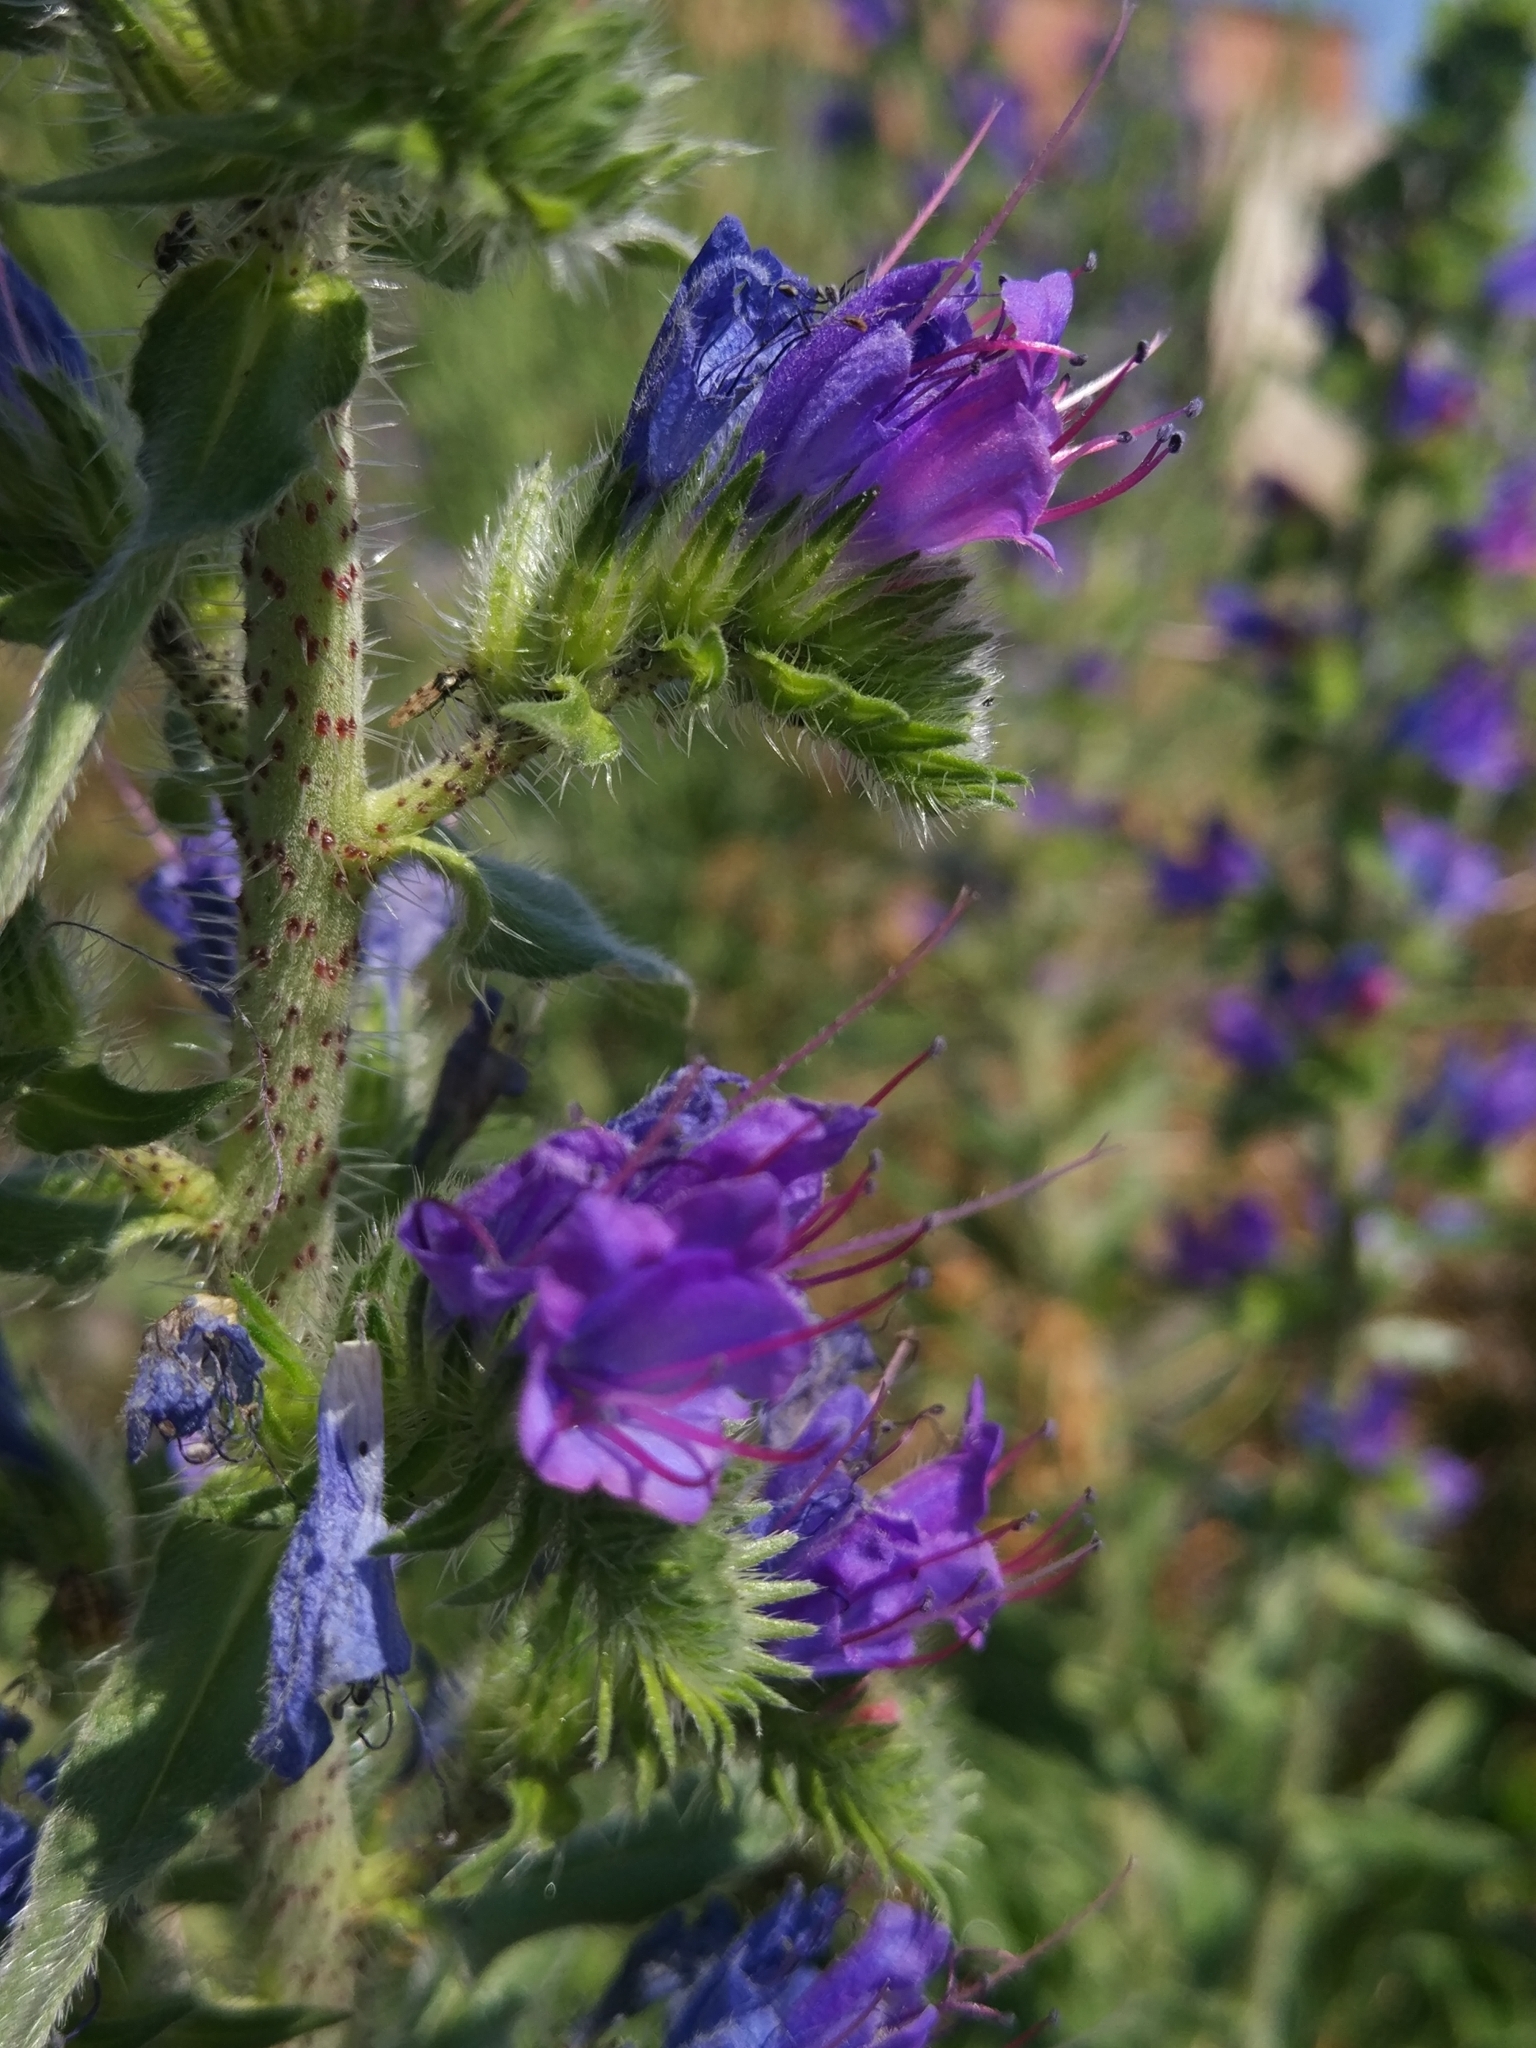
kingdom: Plantae
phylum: Tracheophyta
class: Magnoliopsida
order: Boraginales
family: Boraginaceae
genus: Echium
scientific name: Echium vulgare
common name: Common viper's bugloss
